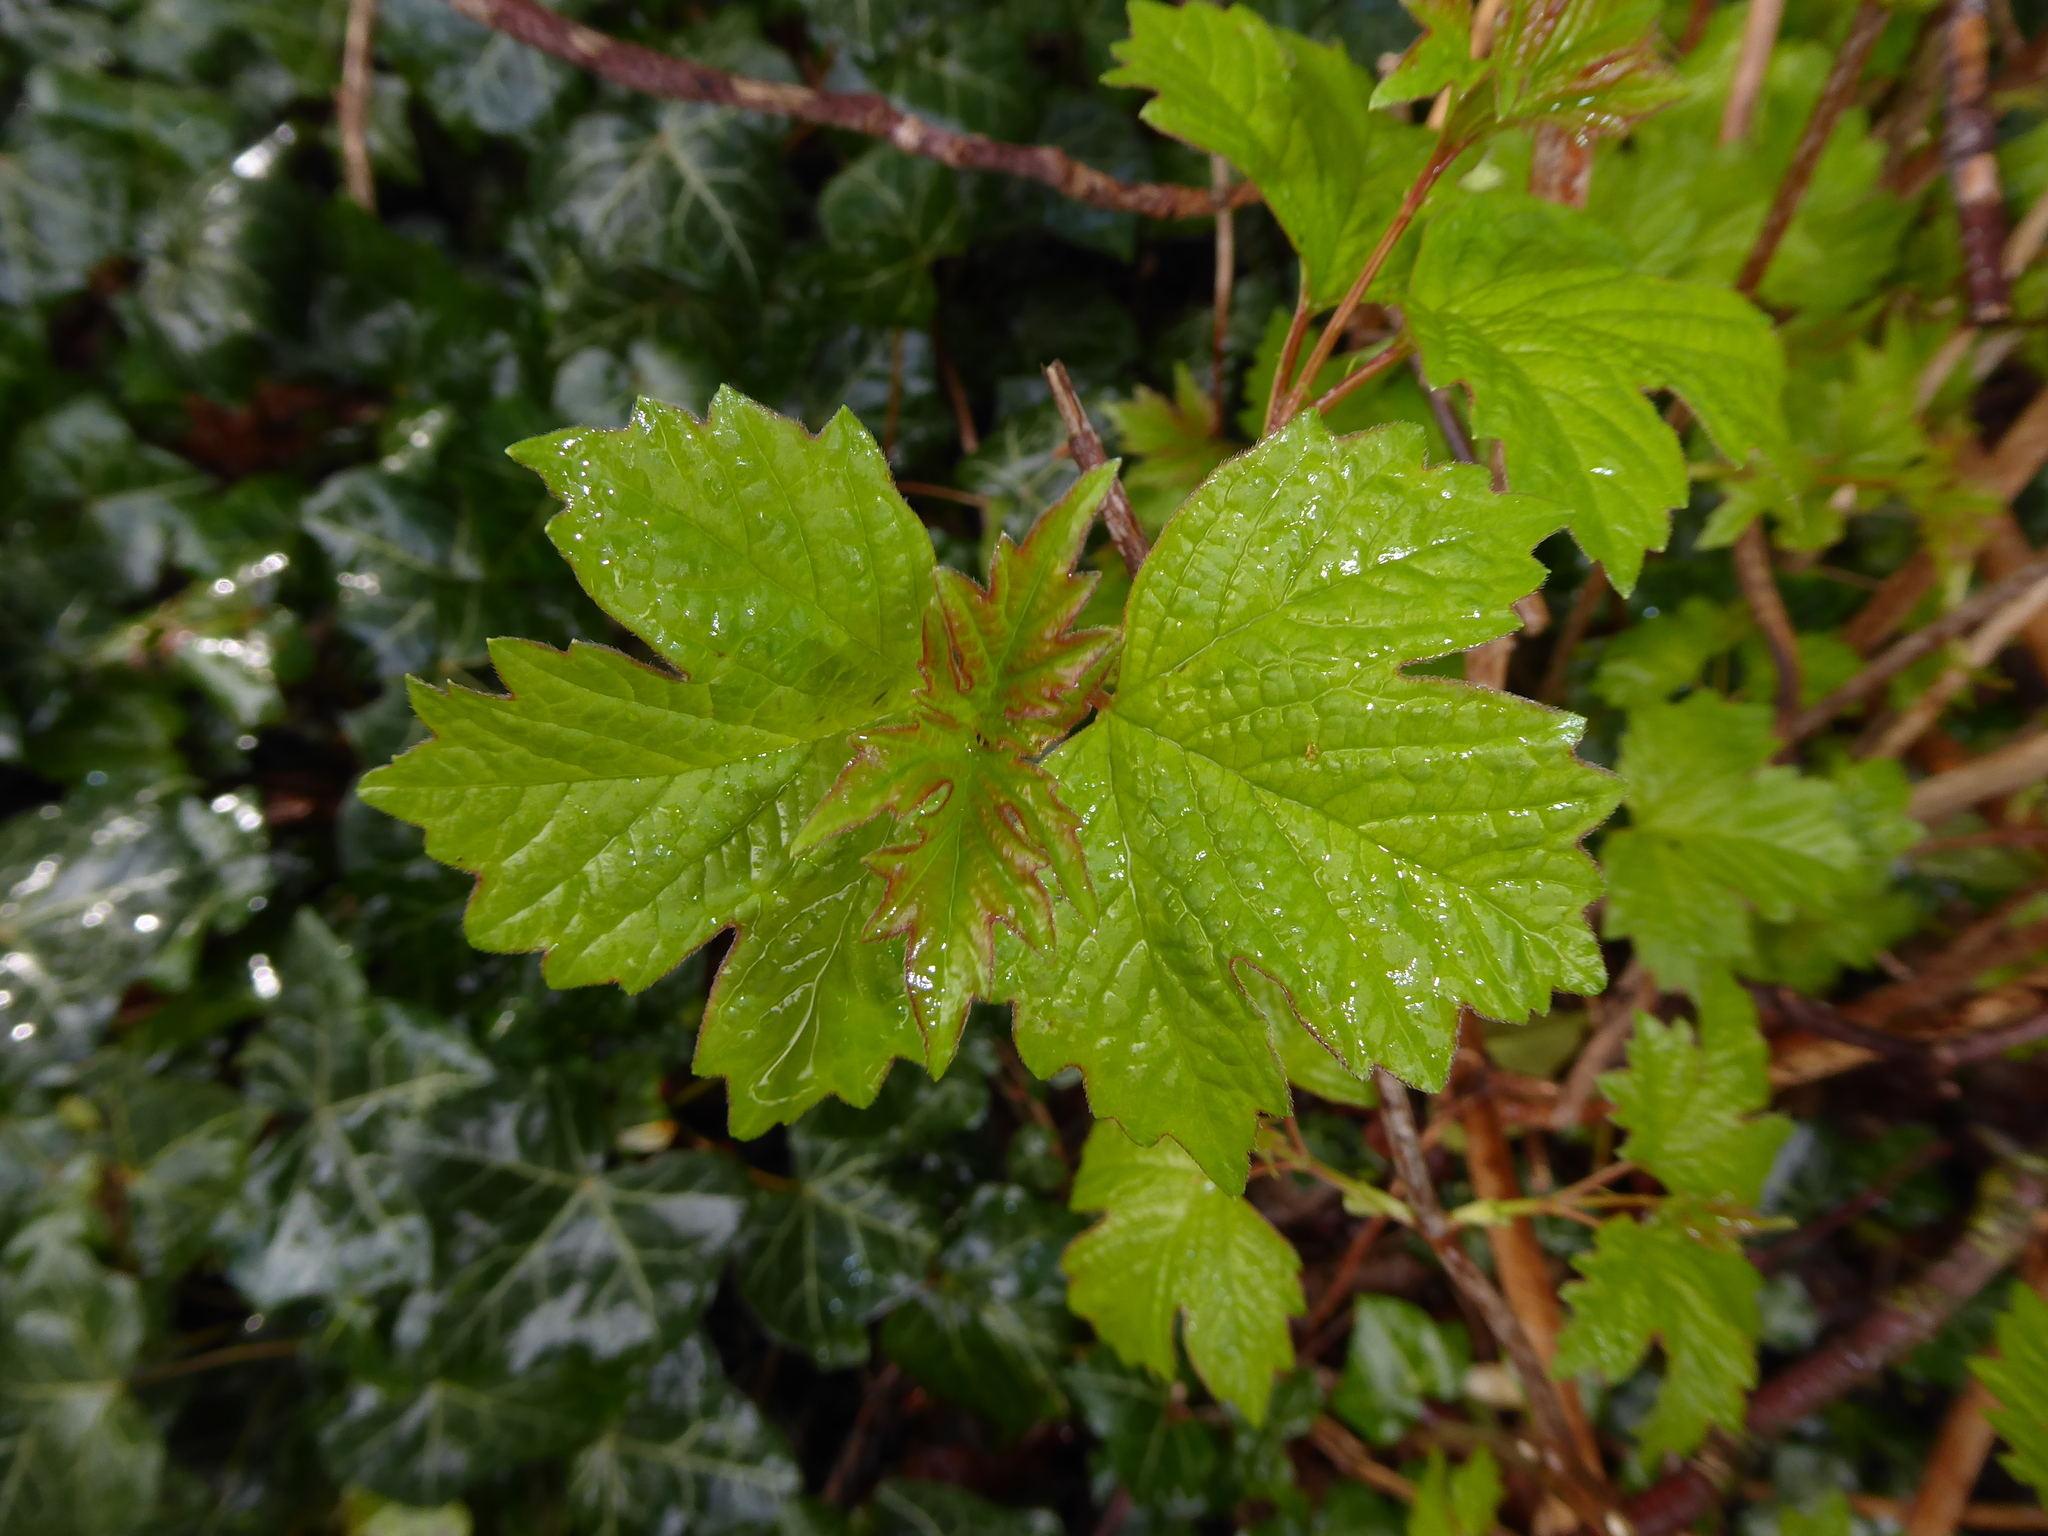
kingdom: Plantae
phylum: Tracheophyta
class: Magnoliopsida
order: Dipsacales
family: Viburnaceae
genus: Viburnum
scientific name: Viburnum opulus
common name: Guelder-rose
